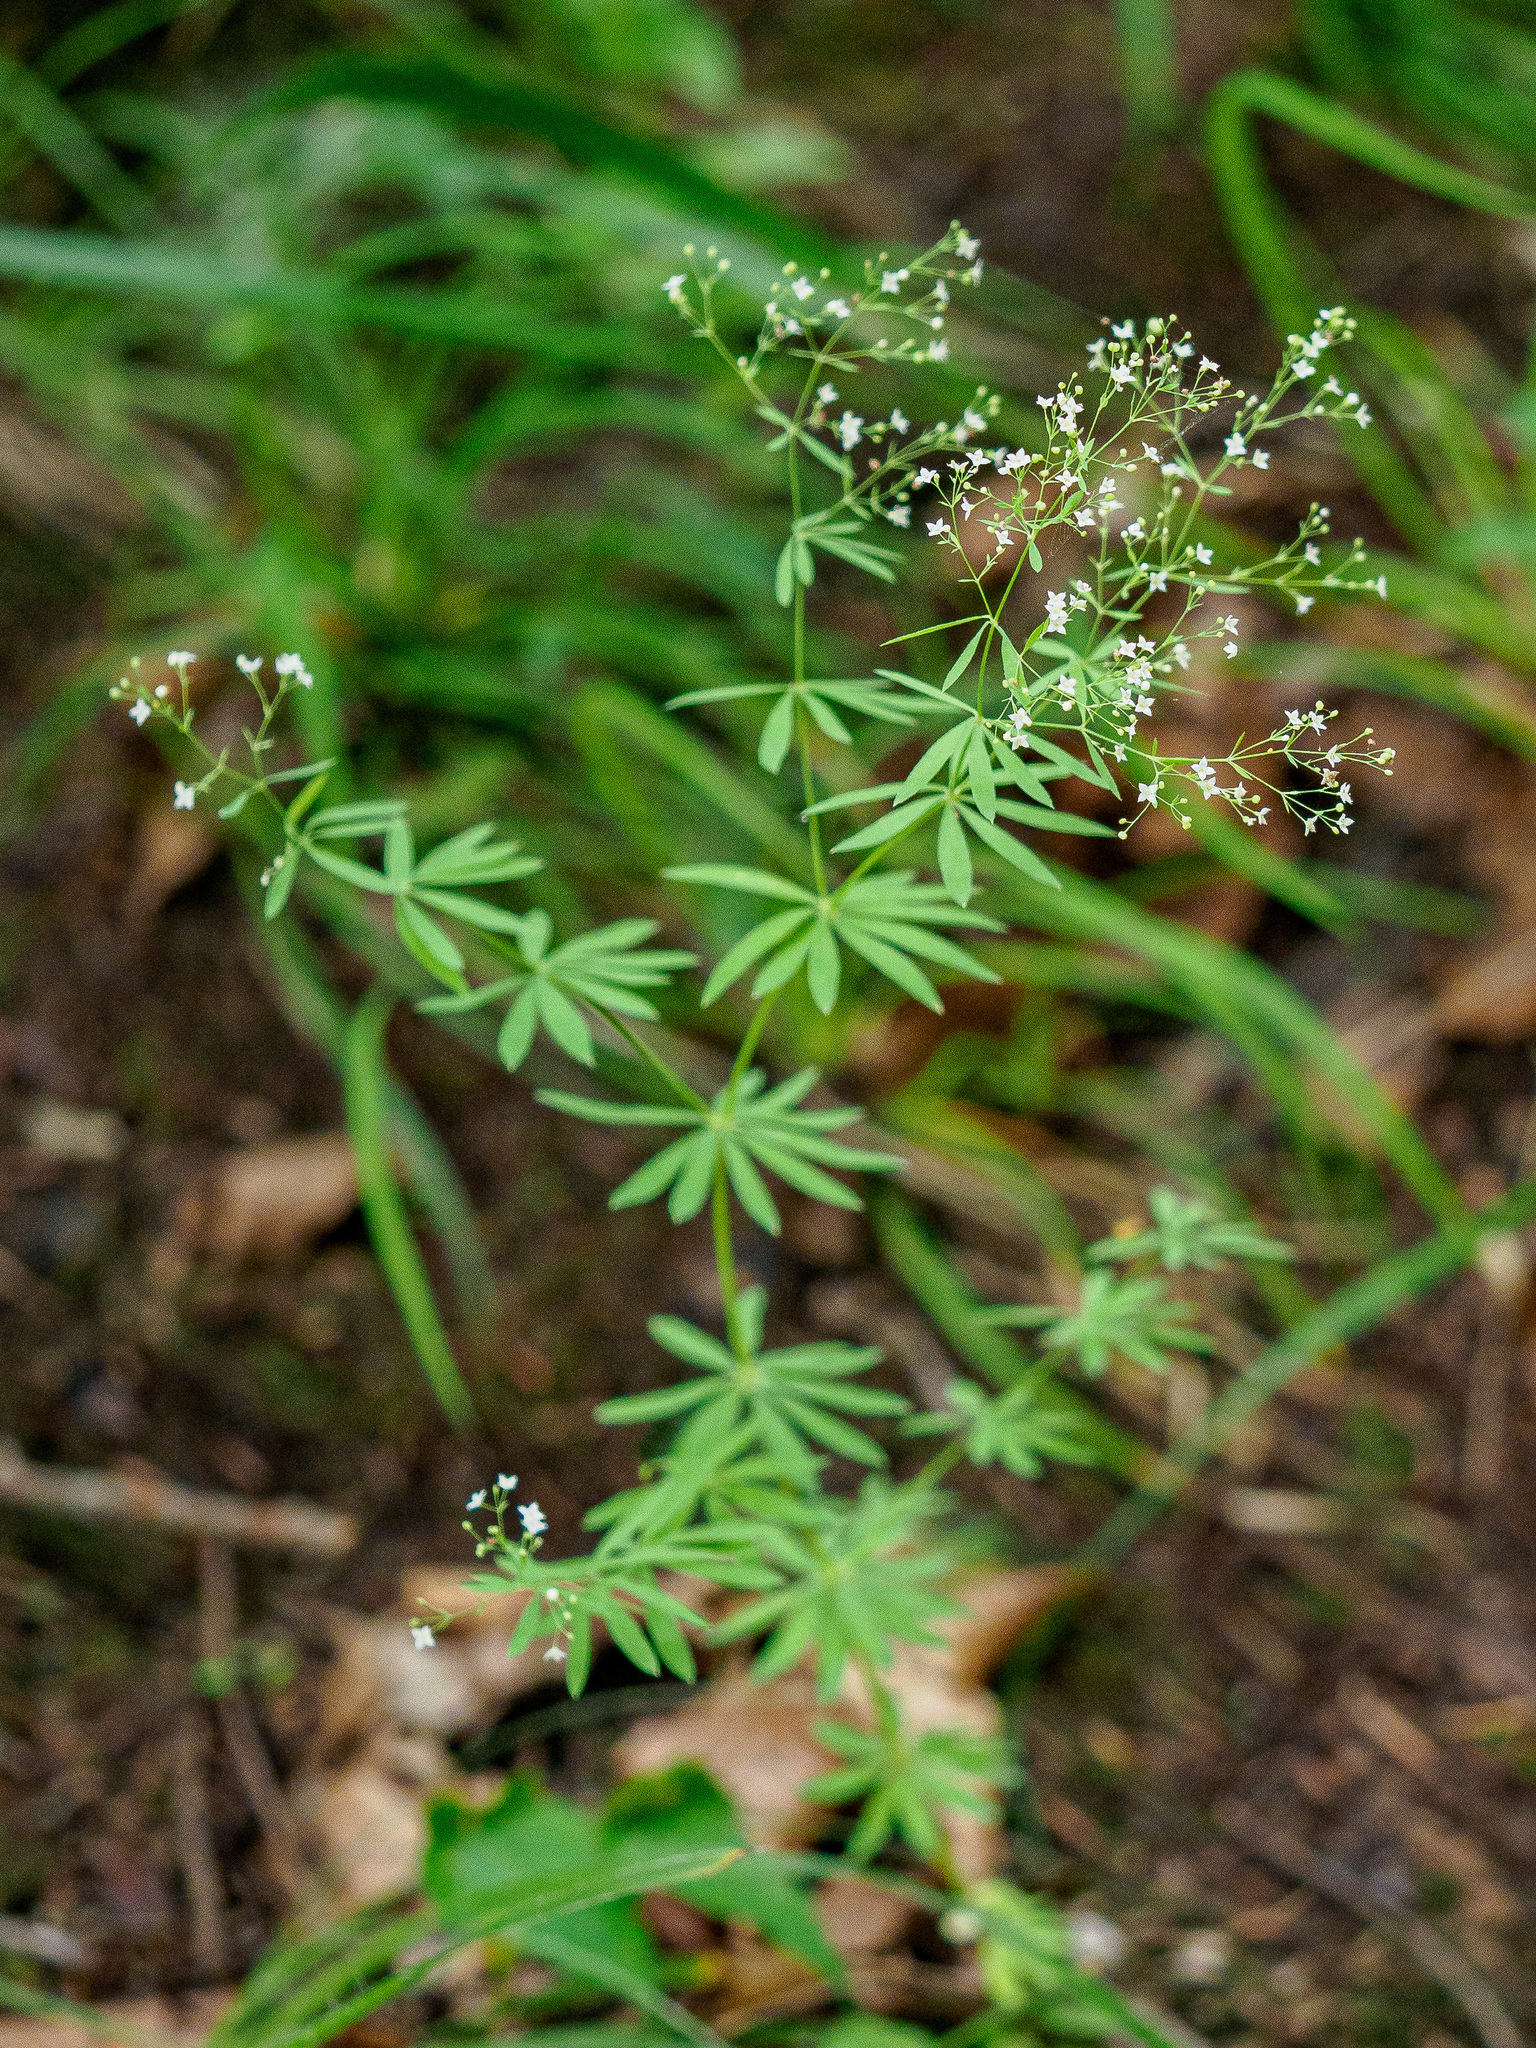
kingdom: Plantae
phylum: Tracheophyta
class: Magnoliopsida
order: Gentianales
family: Rubiaceae
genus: Galium
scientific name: Galium sylvaticum
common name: Wood bedstraw
